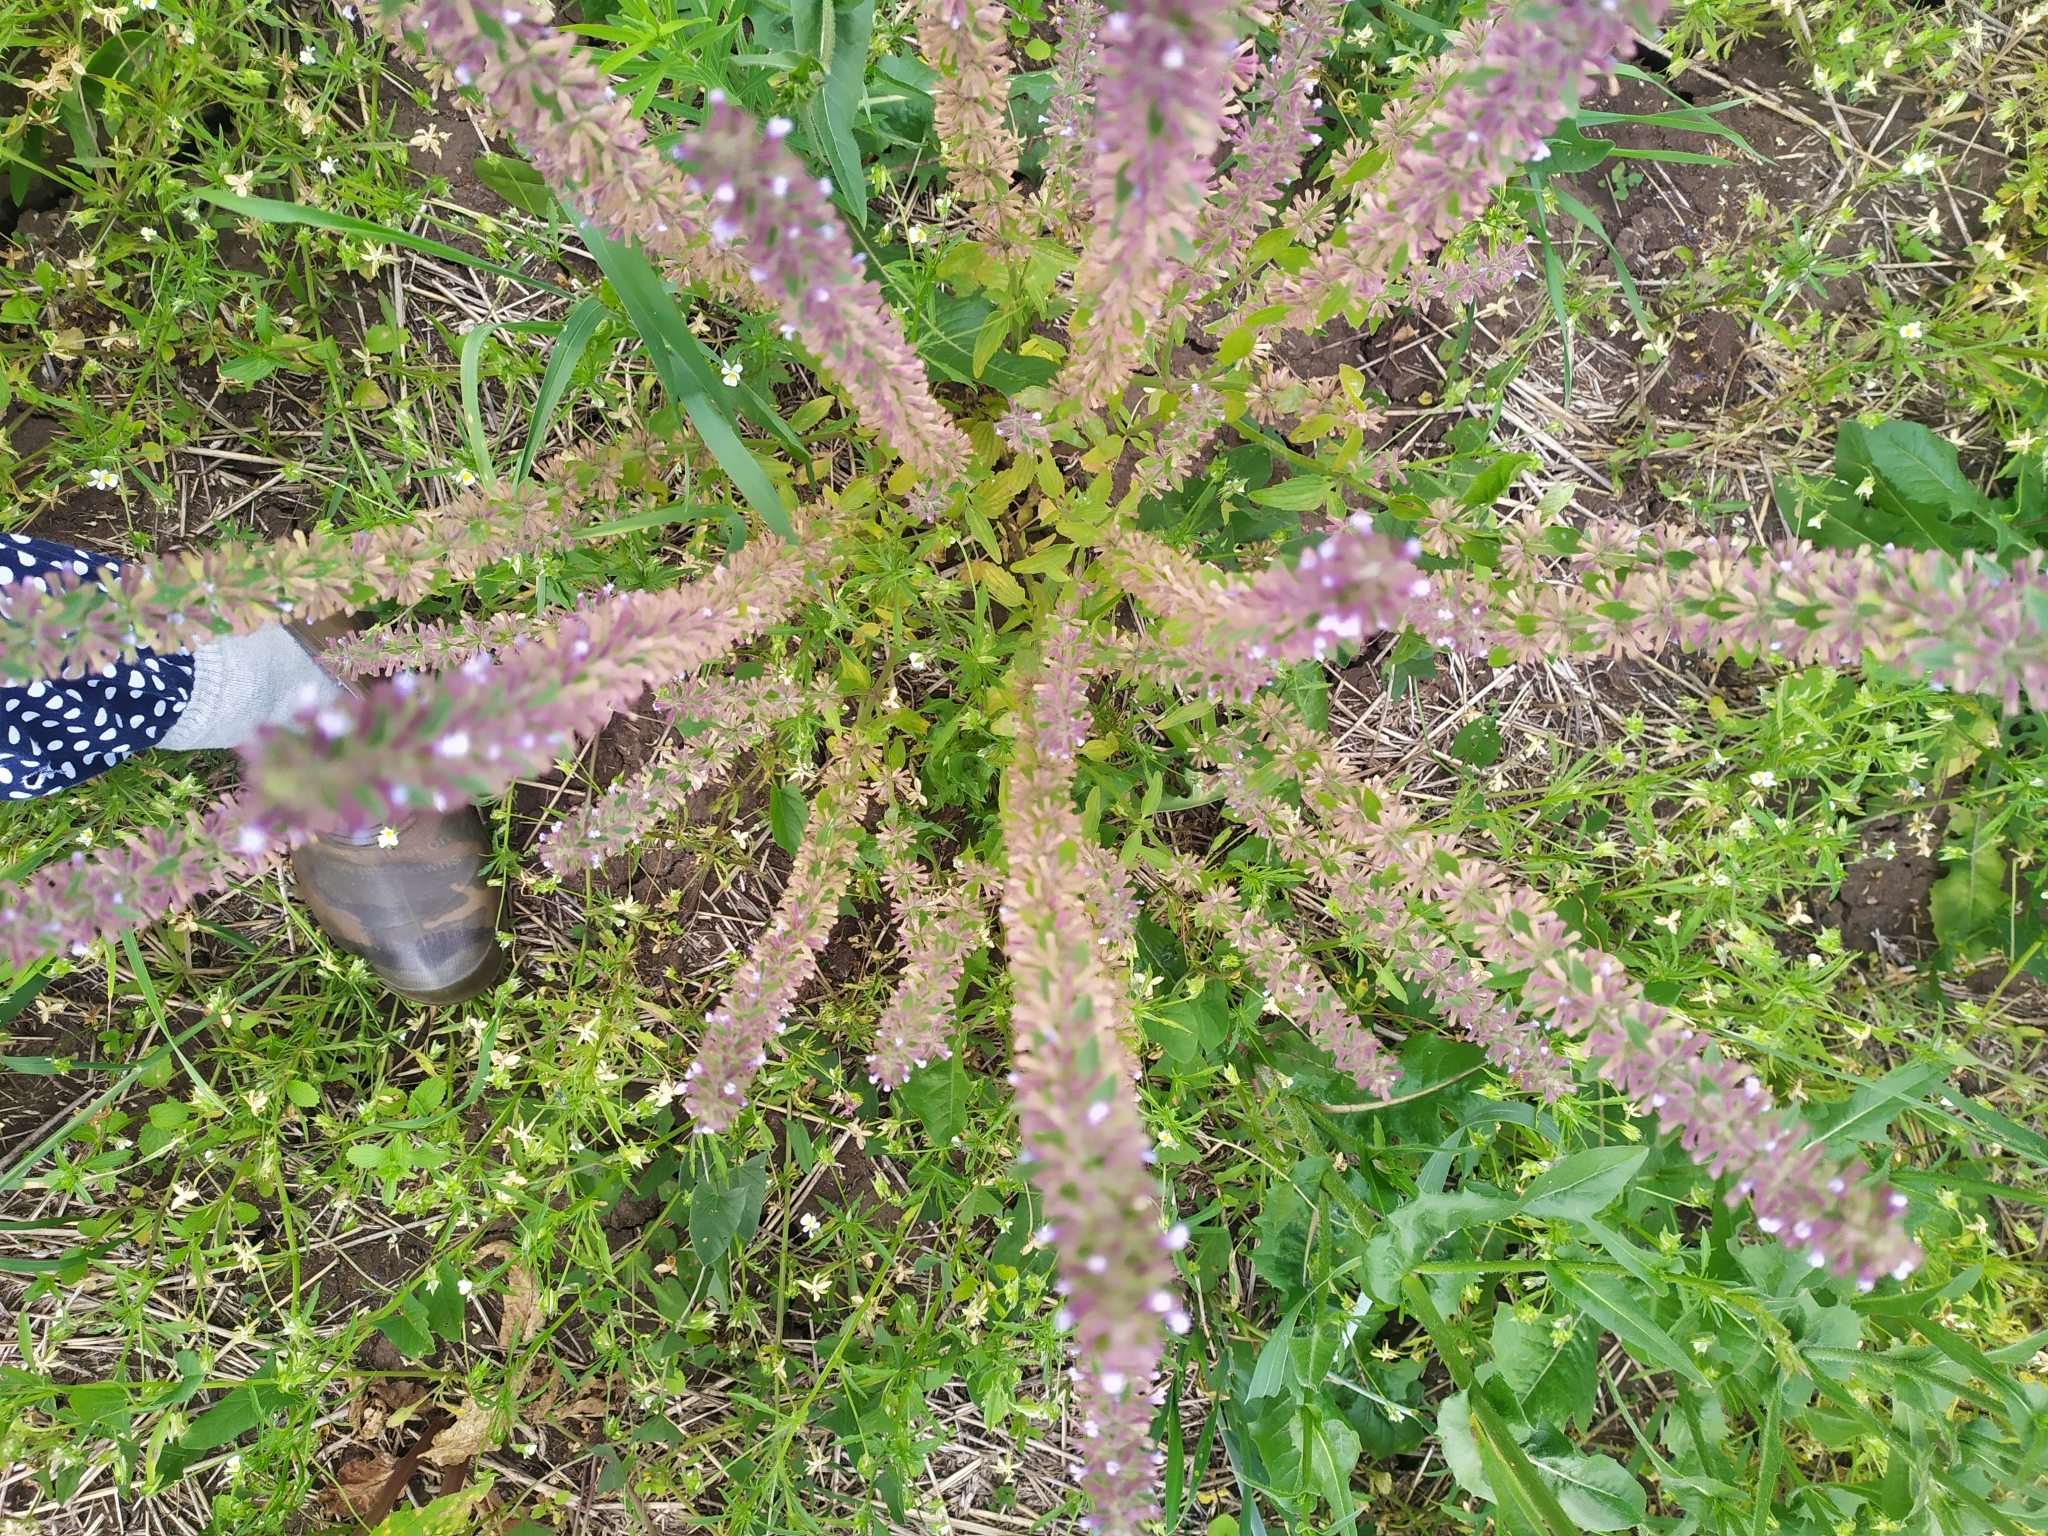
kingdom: Plantae
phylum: Tracheophyta
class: Magnoliopsida
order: Lamiales
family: Lamiaceae
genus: Dracocephalum
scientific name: Dracocephalum thymiflorum
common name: Thymeleaf dragonhead
